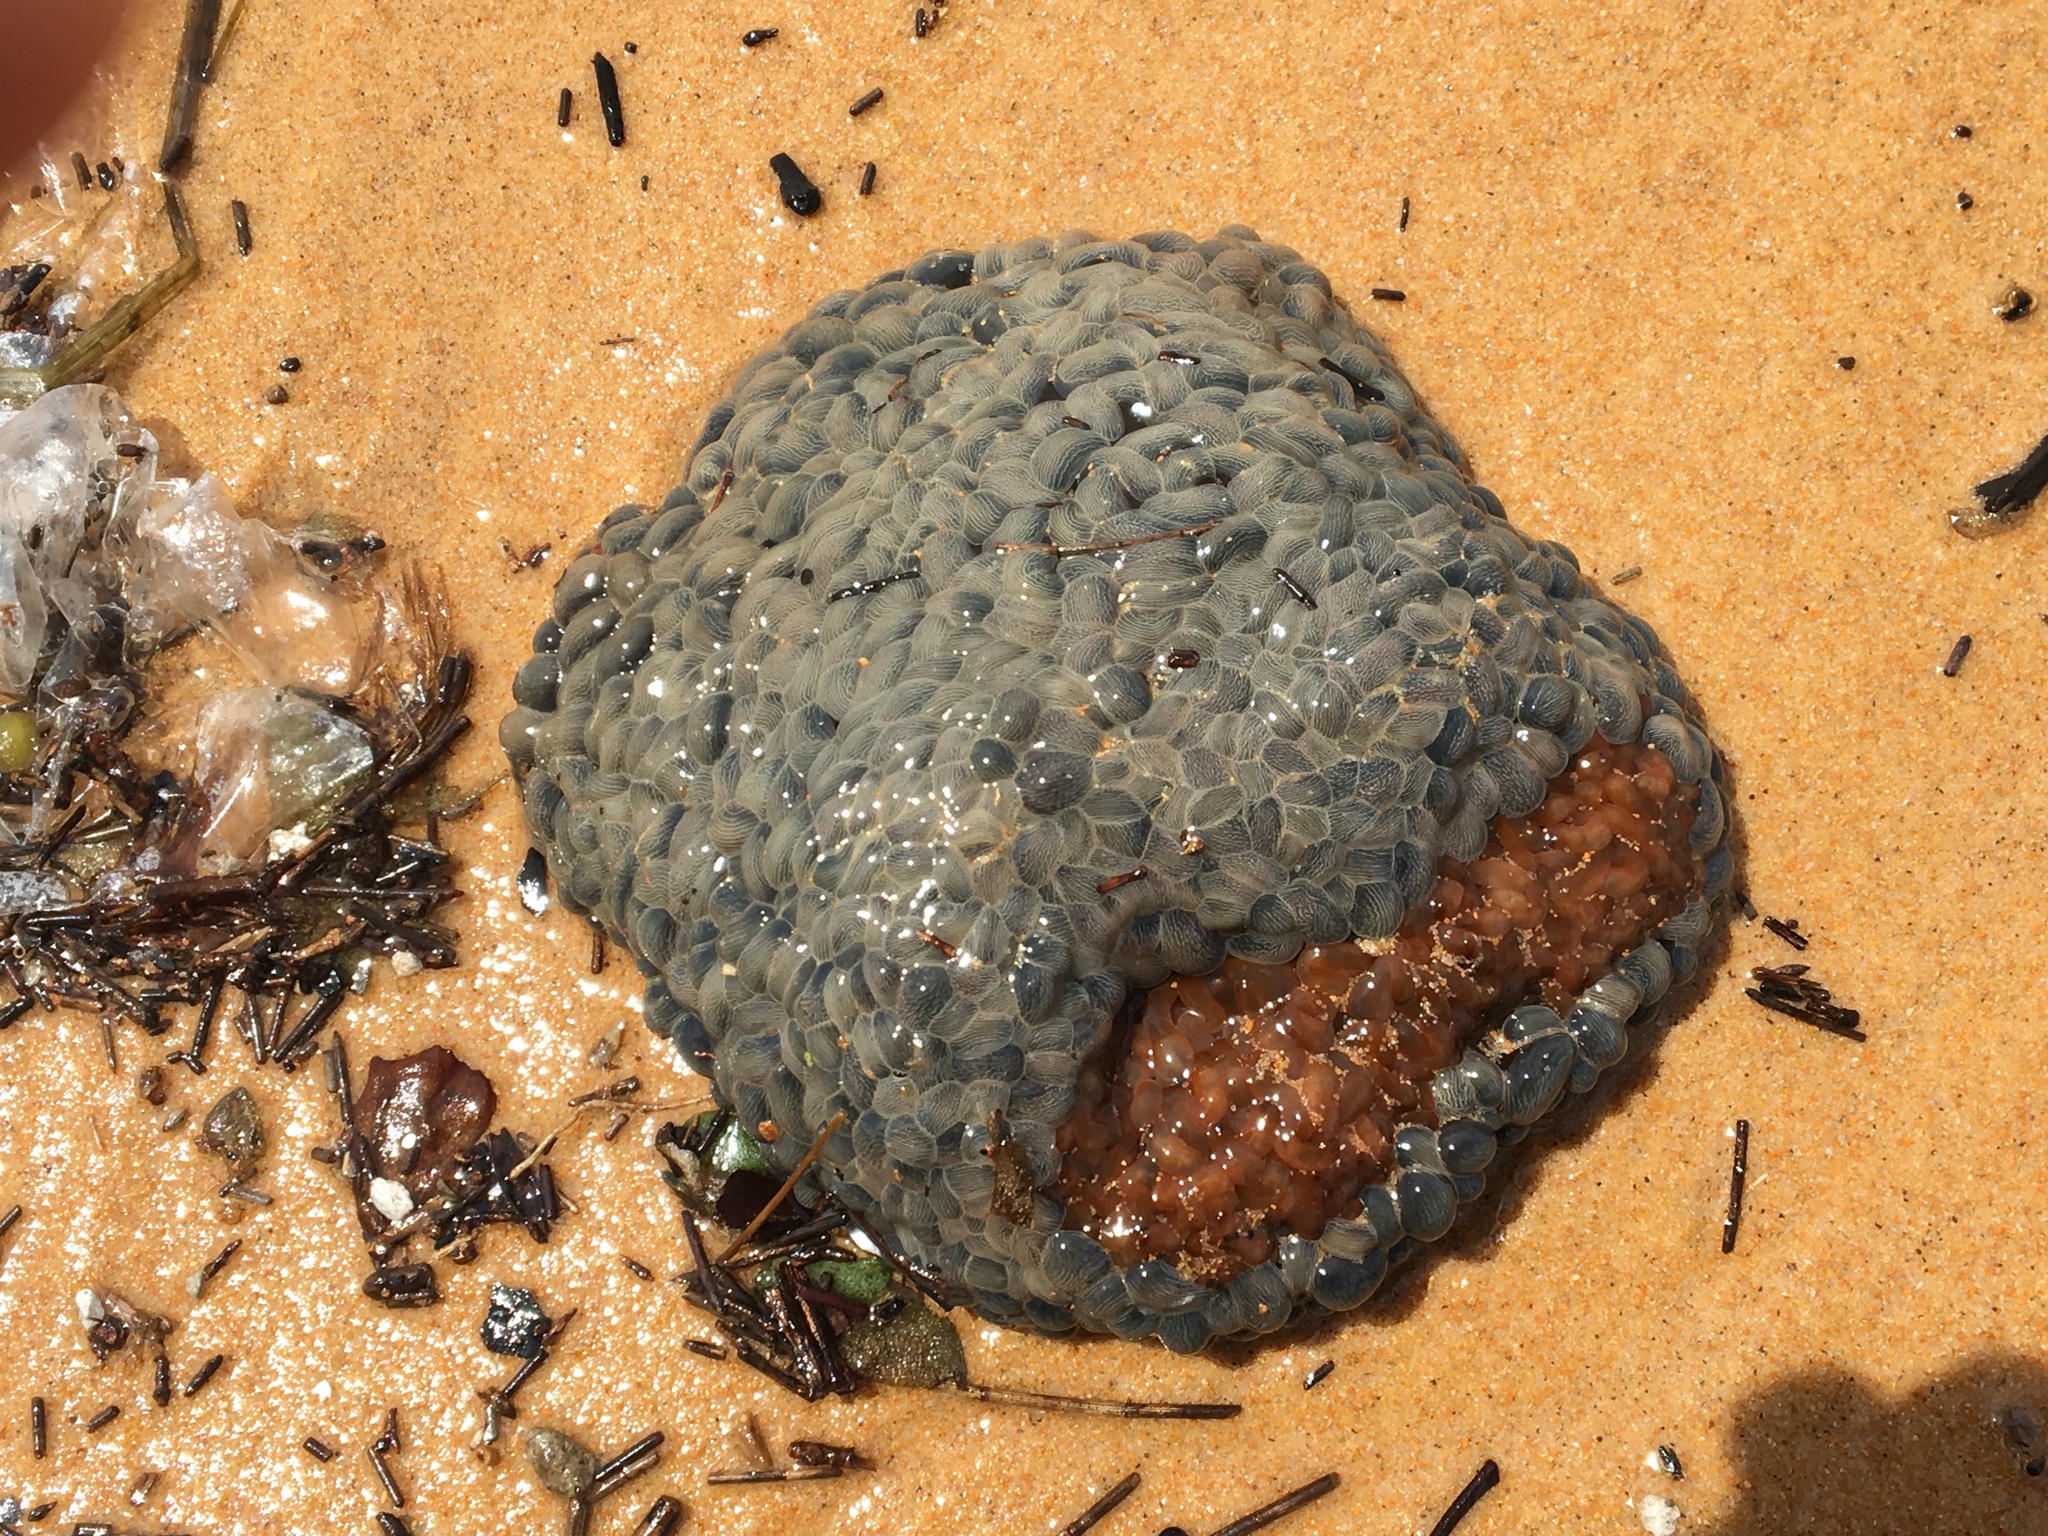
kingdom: Animalia
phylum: Cnidaria
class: Anthozoa
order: Actiniaria
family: Actiniidae
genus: Phlyctenactis
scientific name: Phlyctenactis tuberculosa
